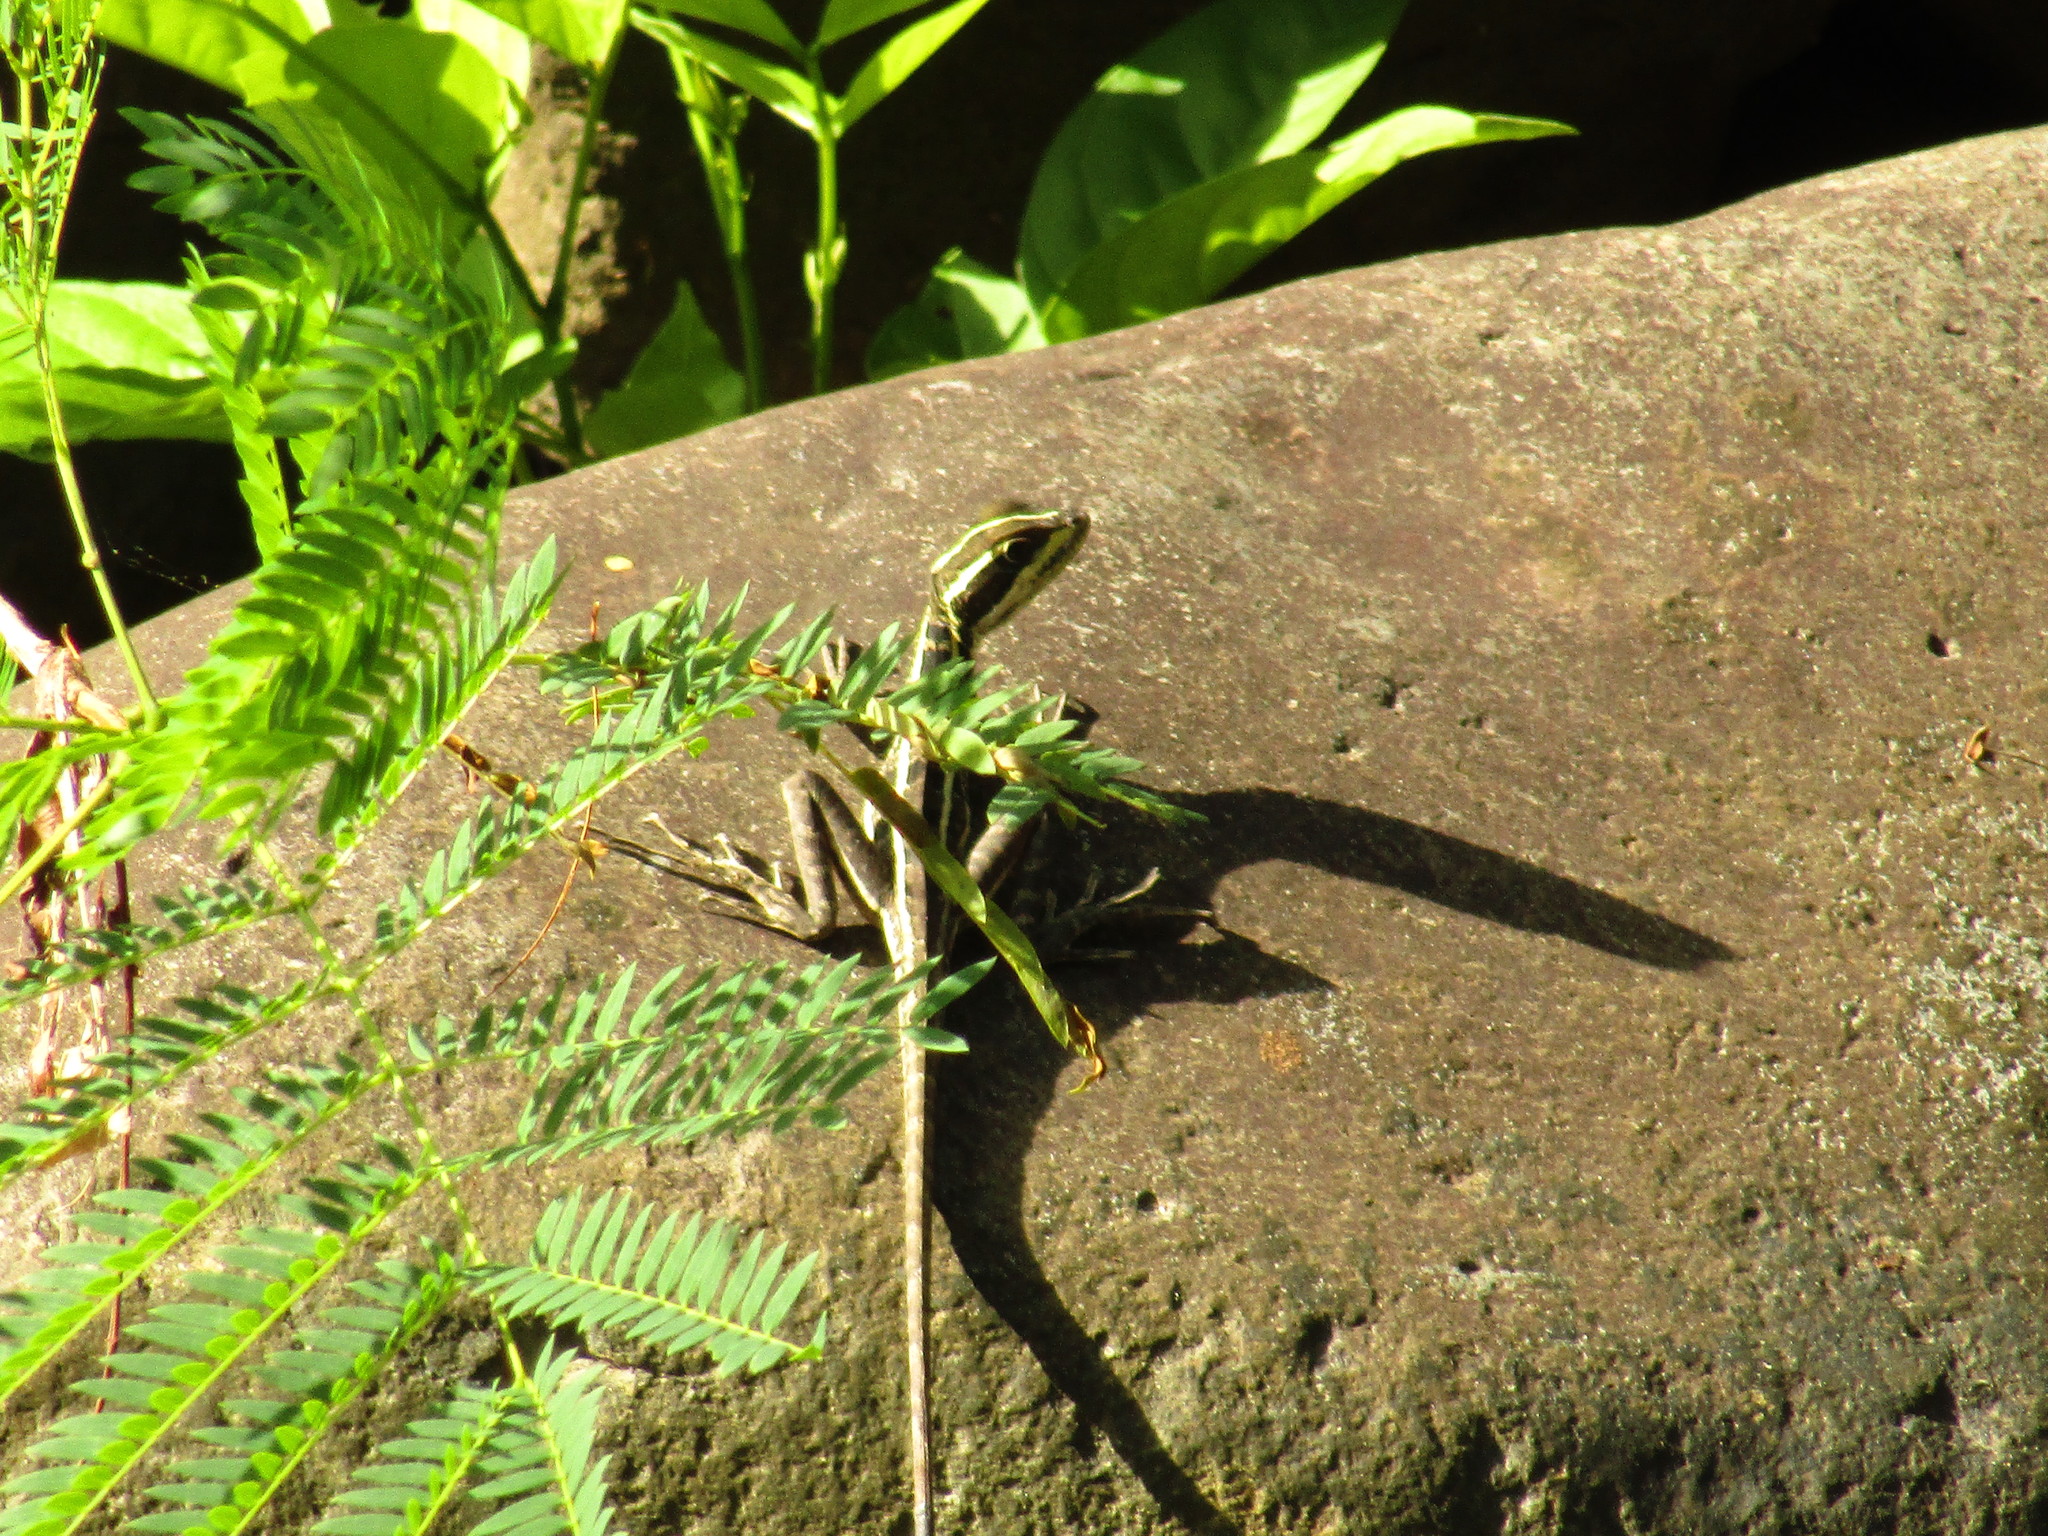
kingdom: Animalia
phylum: Chordata
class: Squamata
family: Corytophanidae
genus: Basiliscus
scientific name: Basiliscus vittatus
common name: Brown basilisk
